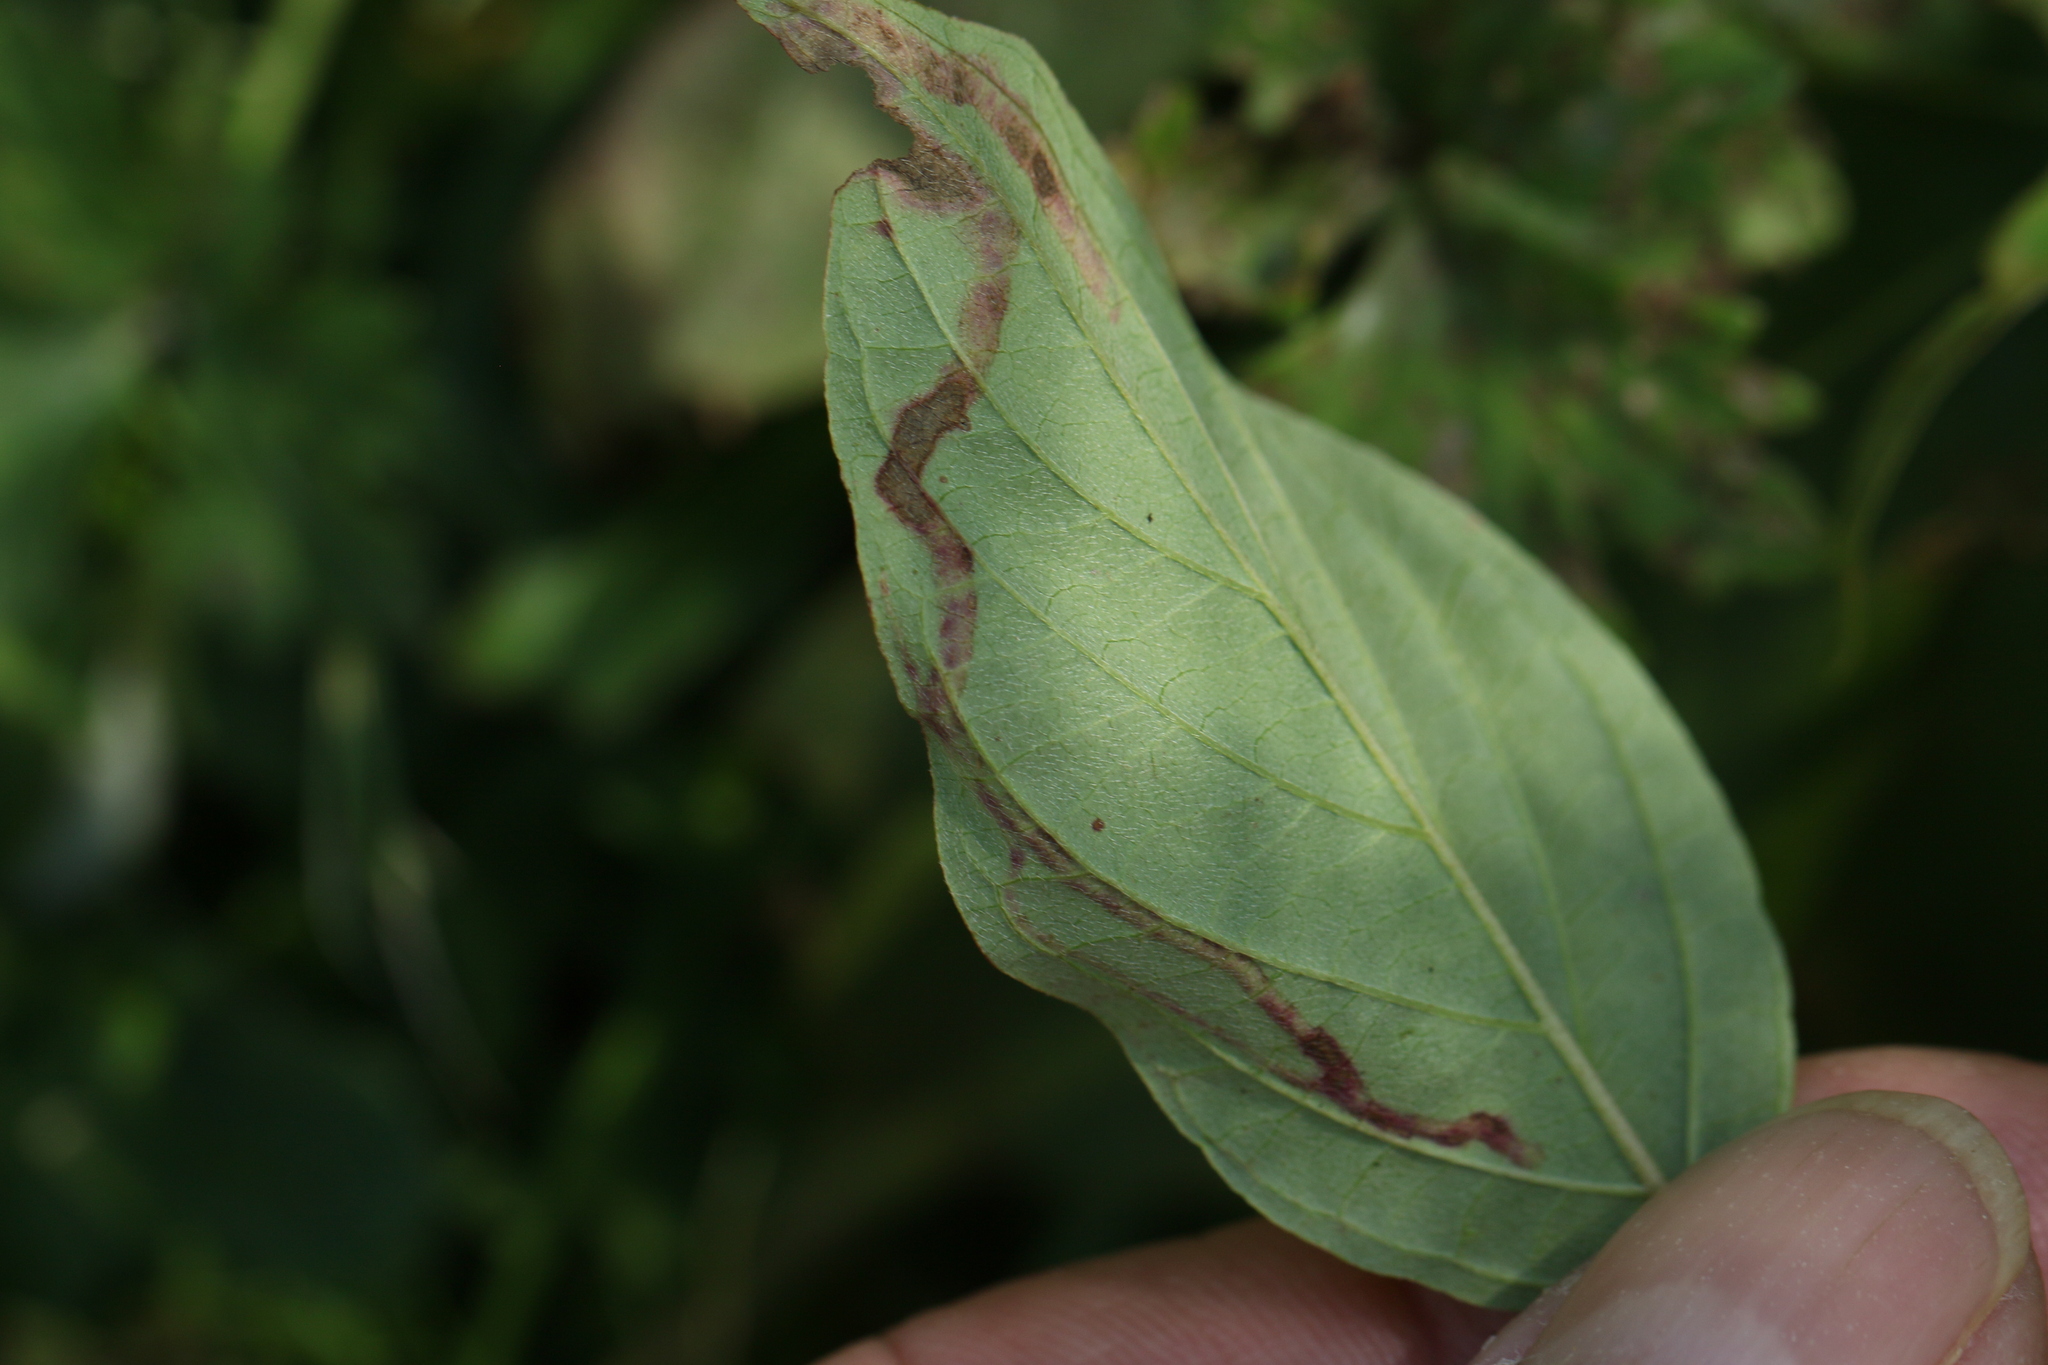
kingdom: Animalia
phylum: Arthropoda
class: Insecta
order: Diptera
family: Agromyzidae
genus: Phytomyza
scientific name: Phytomyza agromyzina
